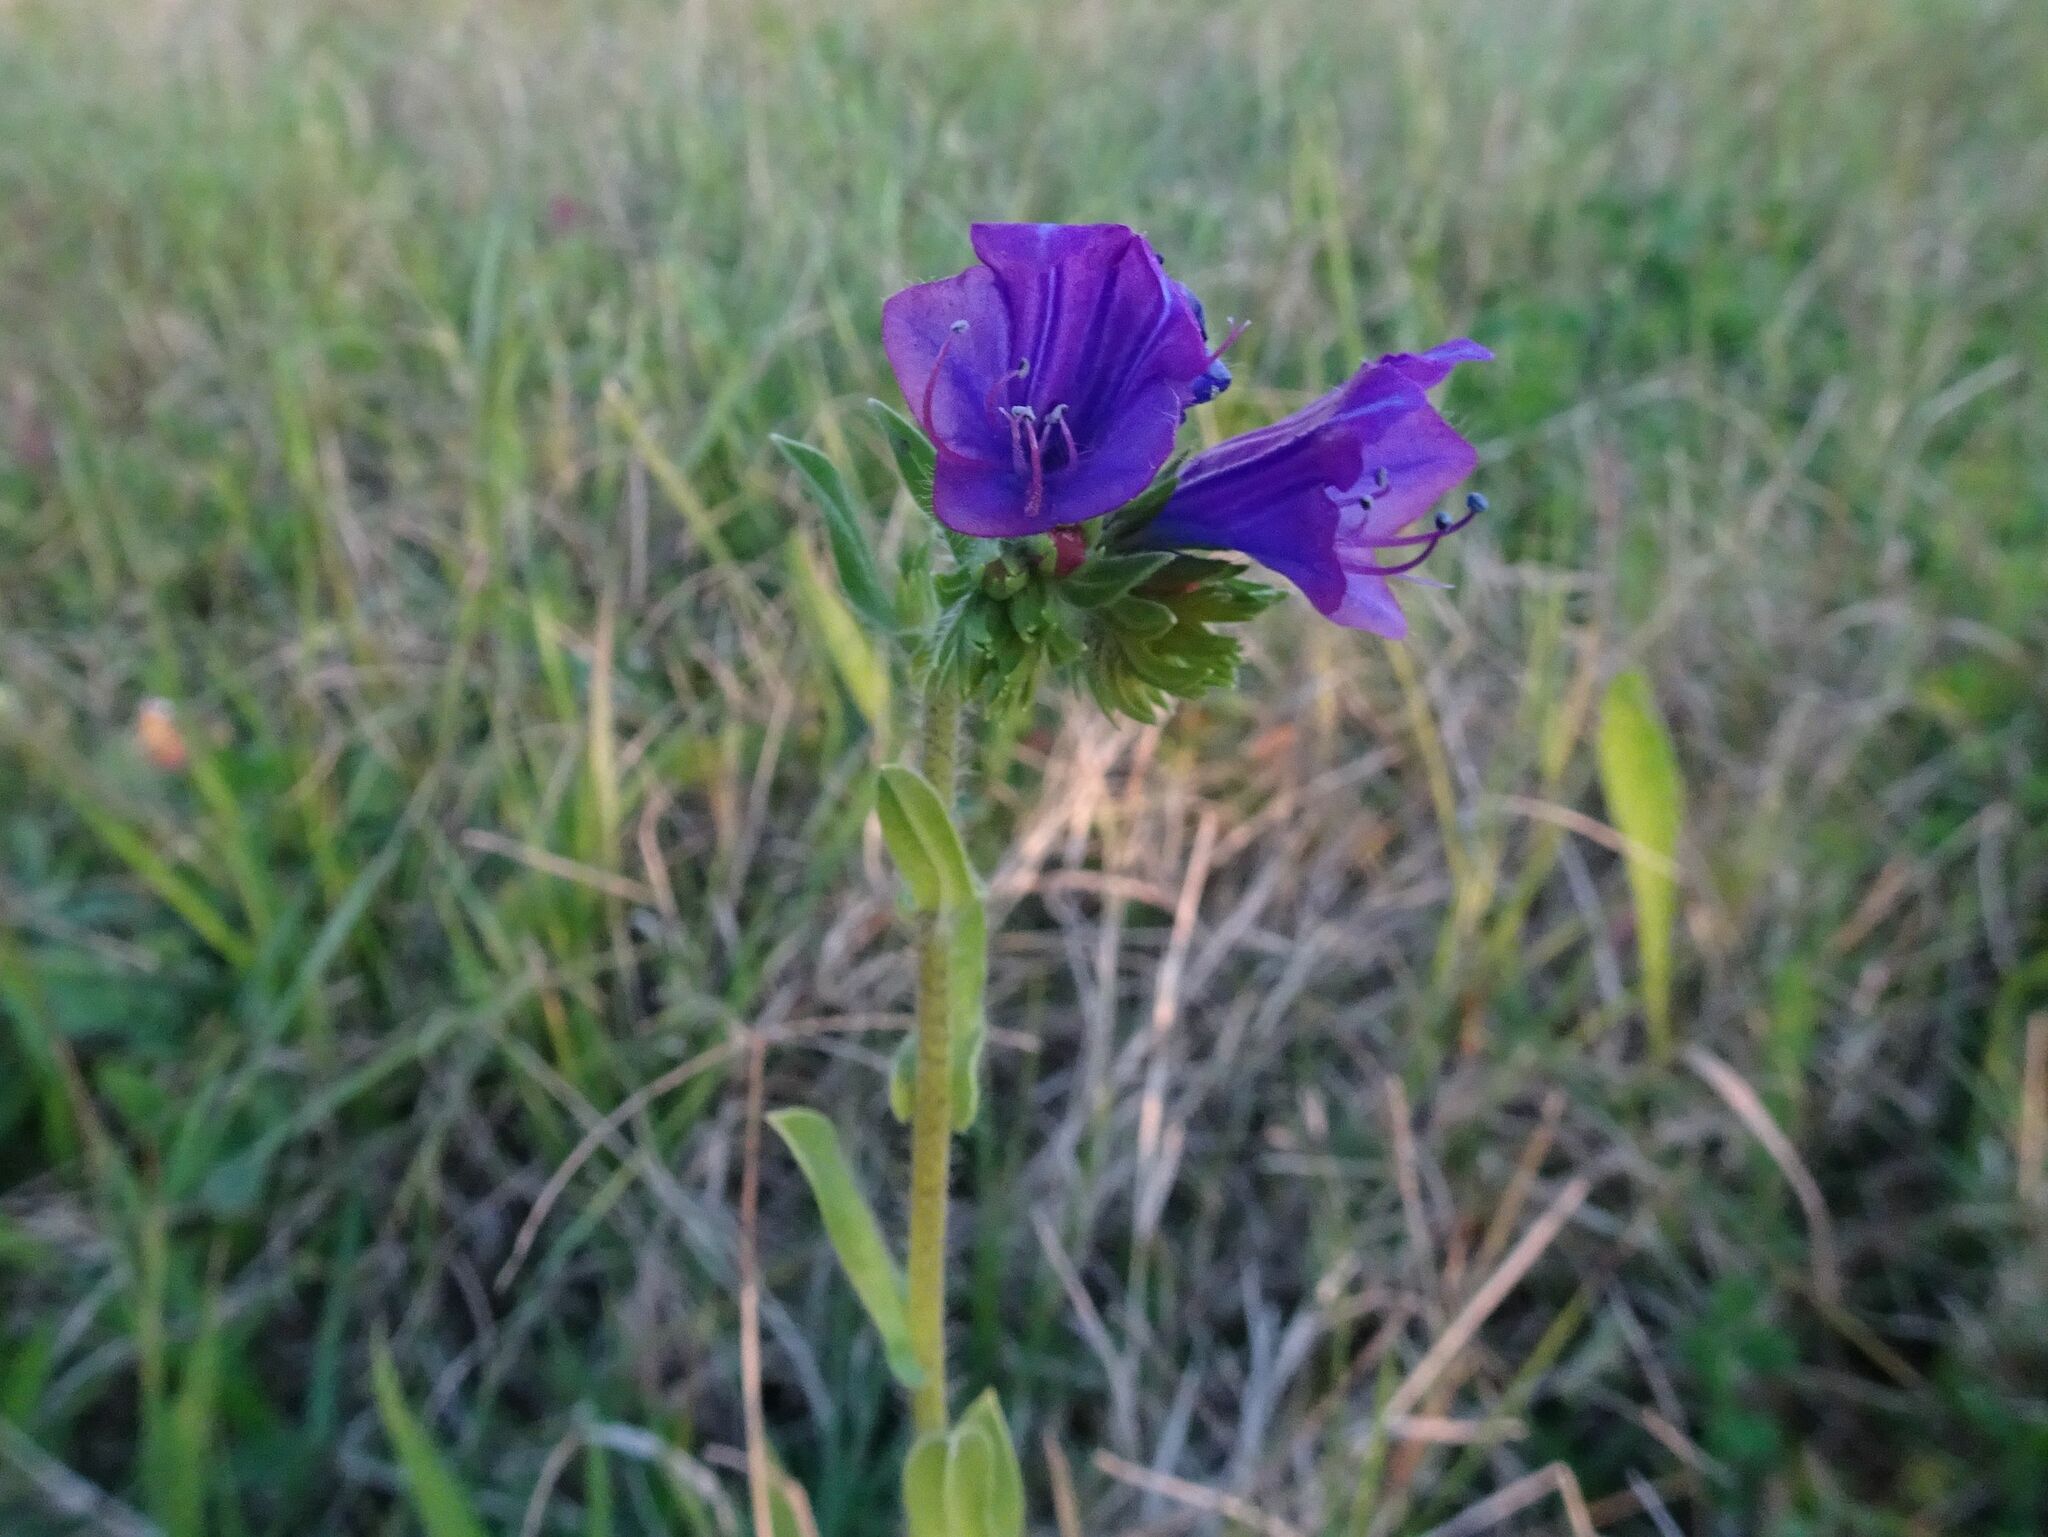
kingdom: Plantae
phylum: Tracheophyta
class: Magnoliopsida
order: Boraginales
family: Boraginaceae
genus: Echium
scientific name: Echium plantagineum
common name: Purple viper's-bugloss
